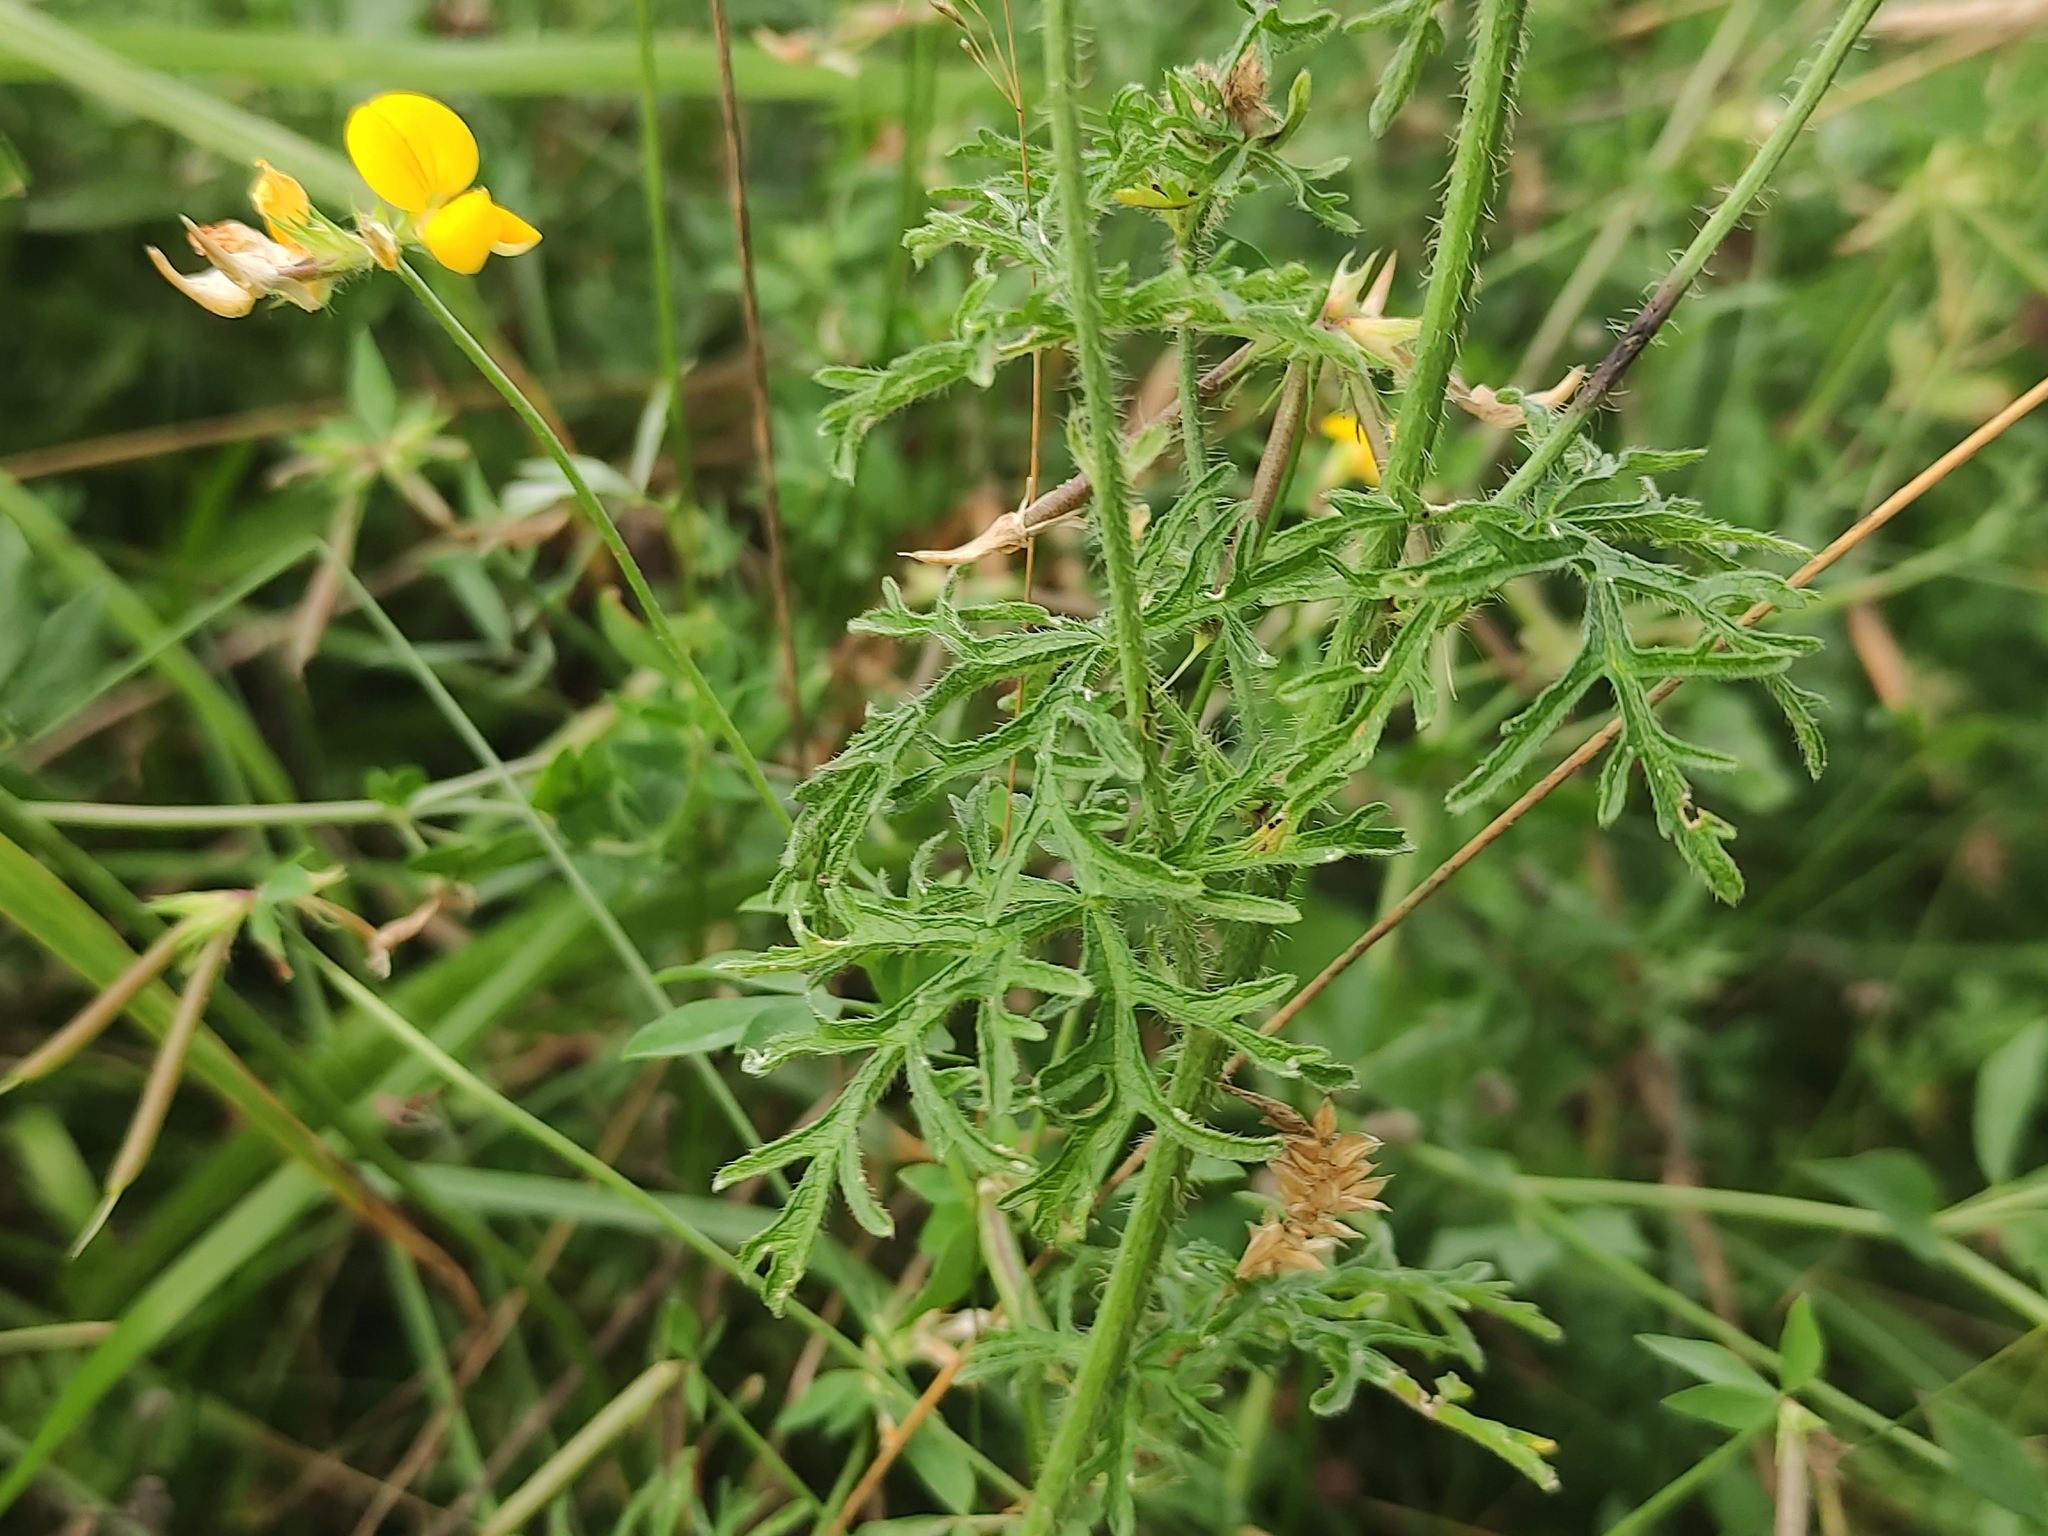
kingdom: Plantae
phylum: Tracheophyta
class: Magnoliopsida
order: Malvales
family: Malvaceae
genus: Malva
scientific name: Malva moschata
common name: Musk mallow
